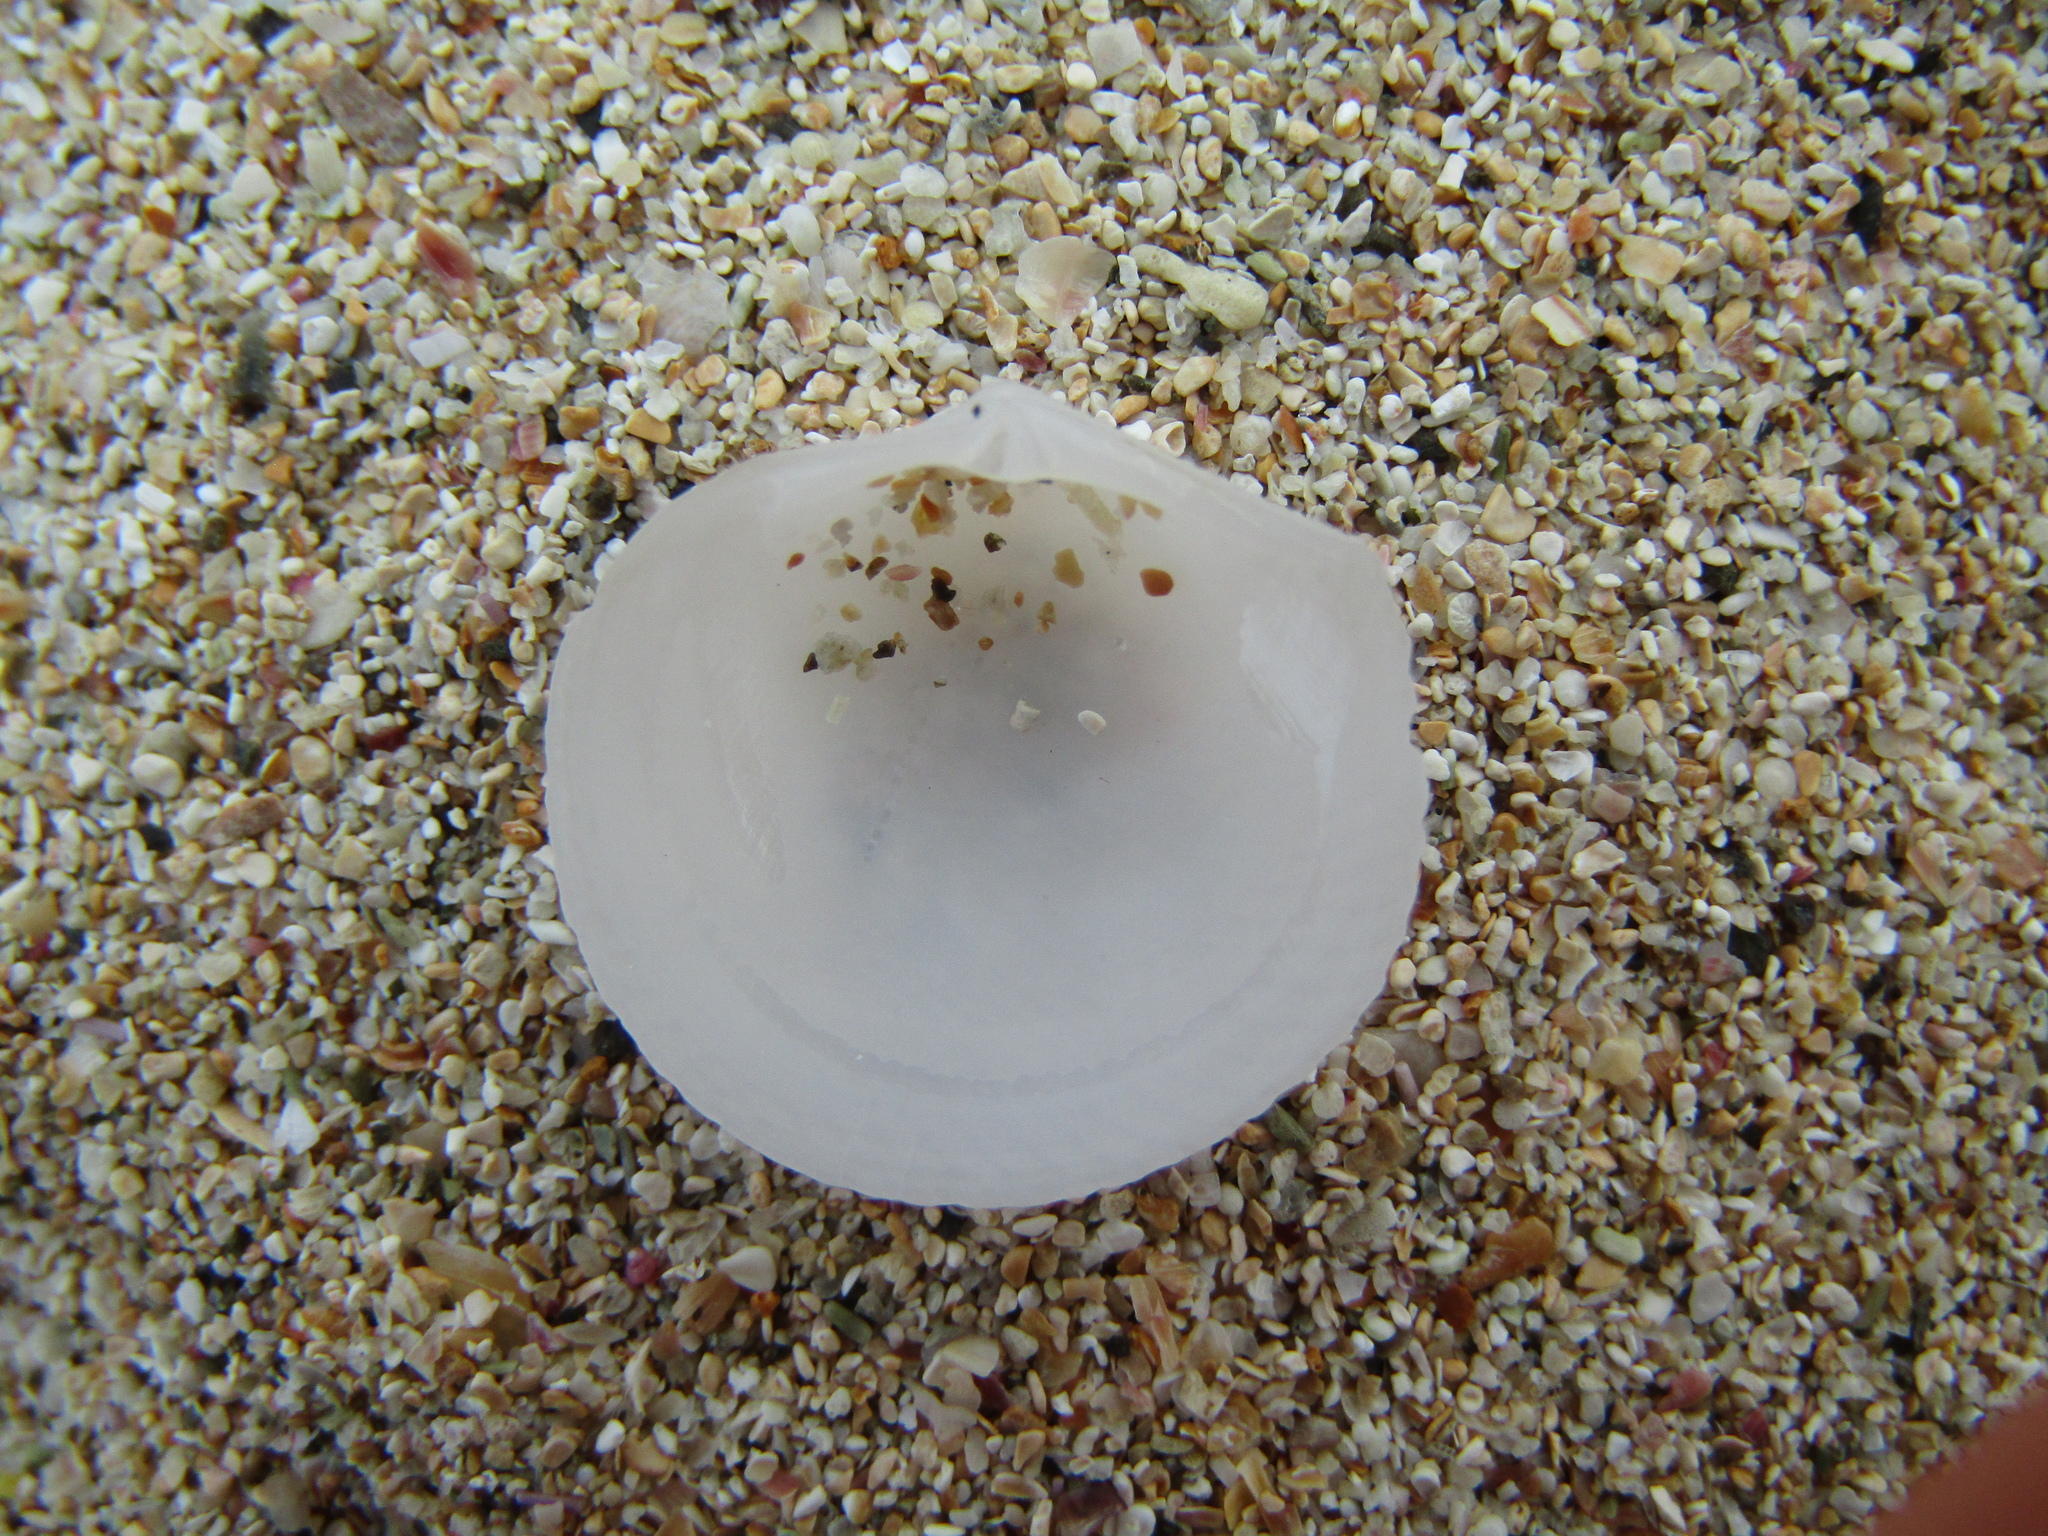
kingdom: Animalia
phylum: Mollusca
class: Bivalvia
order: Lucinida
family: Lucinidae
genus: Divalucina
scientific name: Divalucina cumingi
